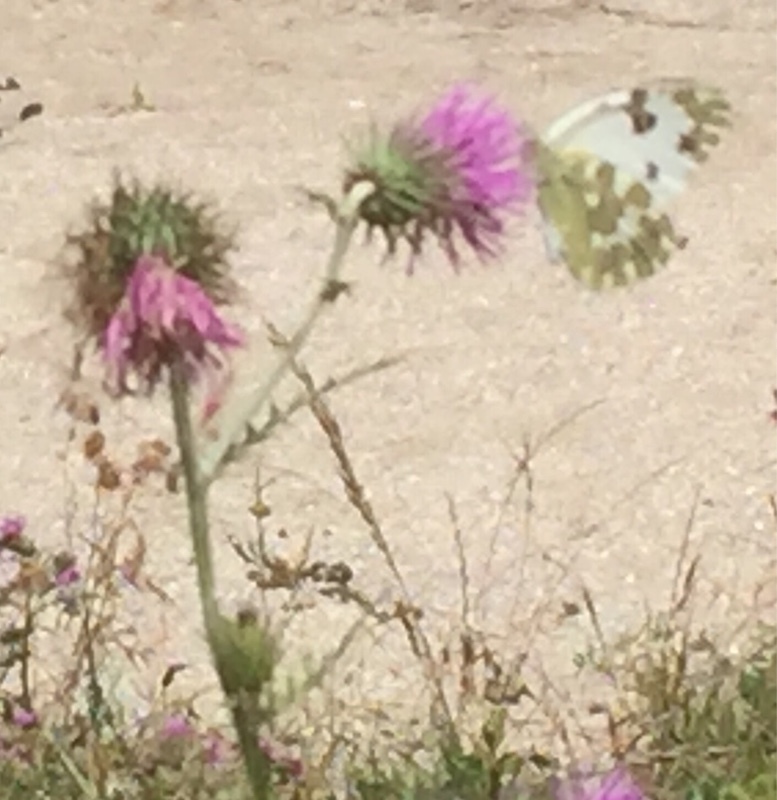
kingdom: Plantae
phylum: Tracheophyta
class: Magnoliopsida
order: Asterales
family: Asteraceae
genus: Cirsium
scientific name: Cirsium vulgare
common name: Bull thistle
